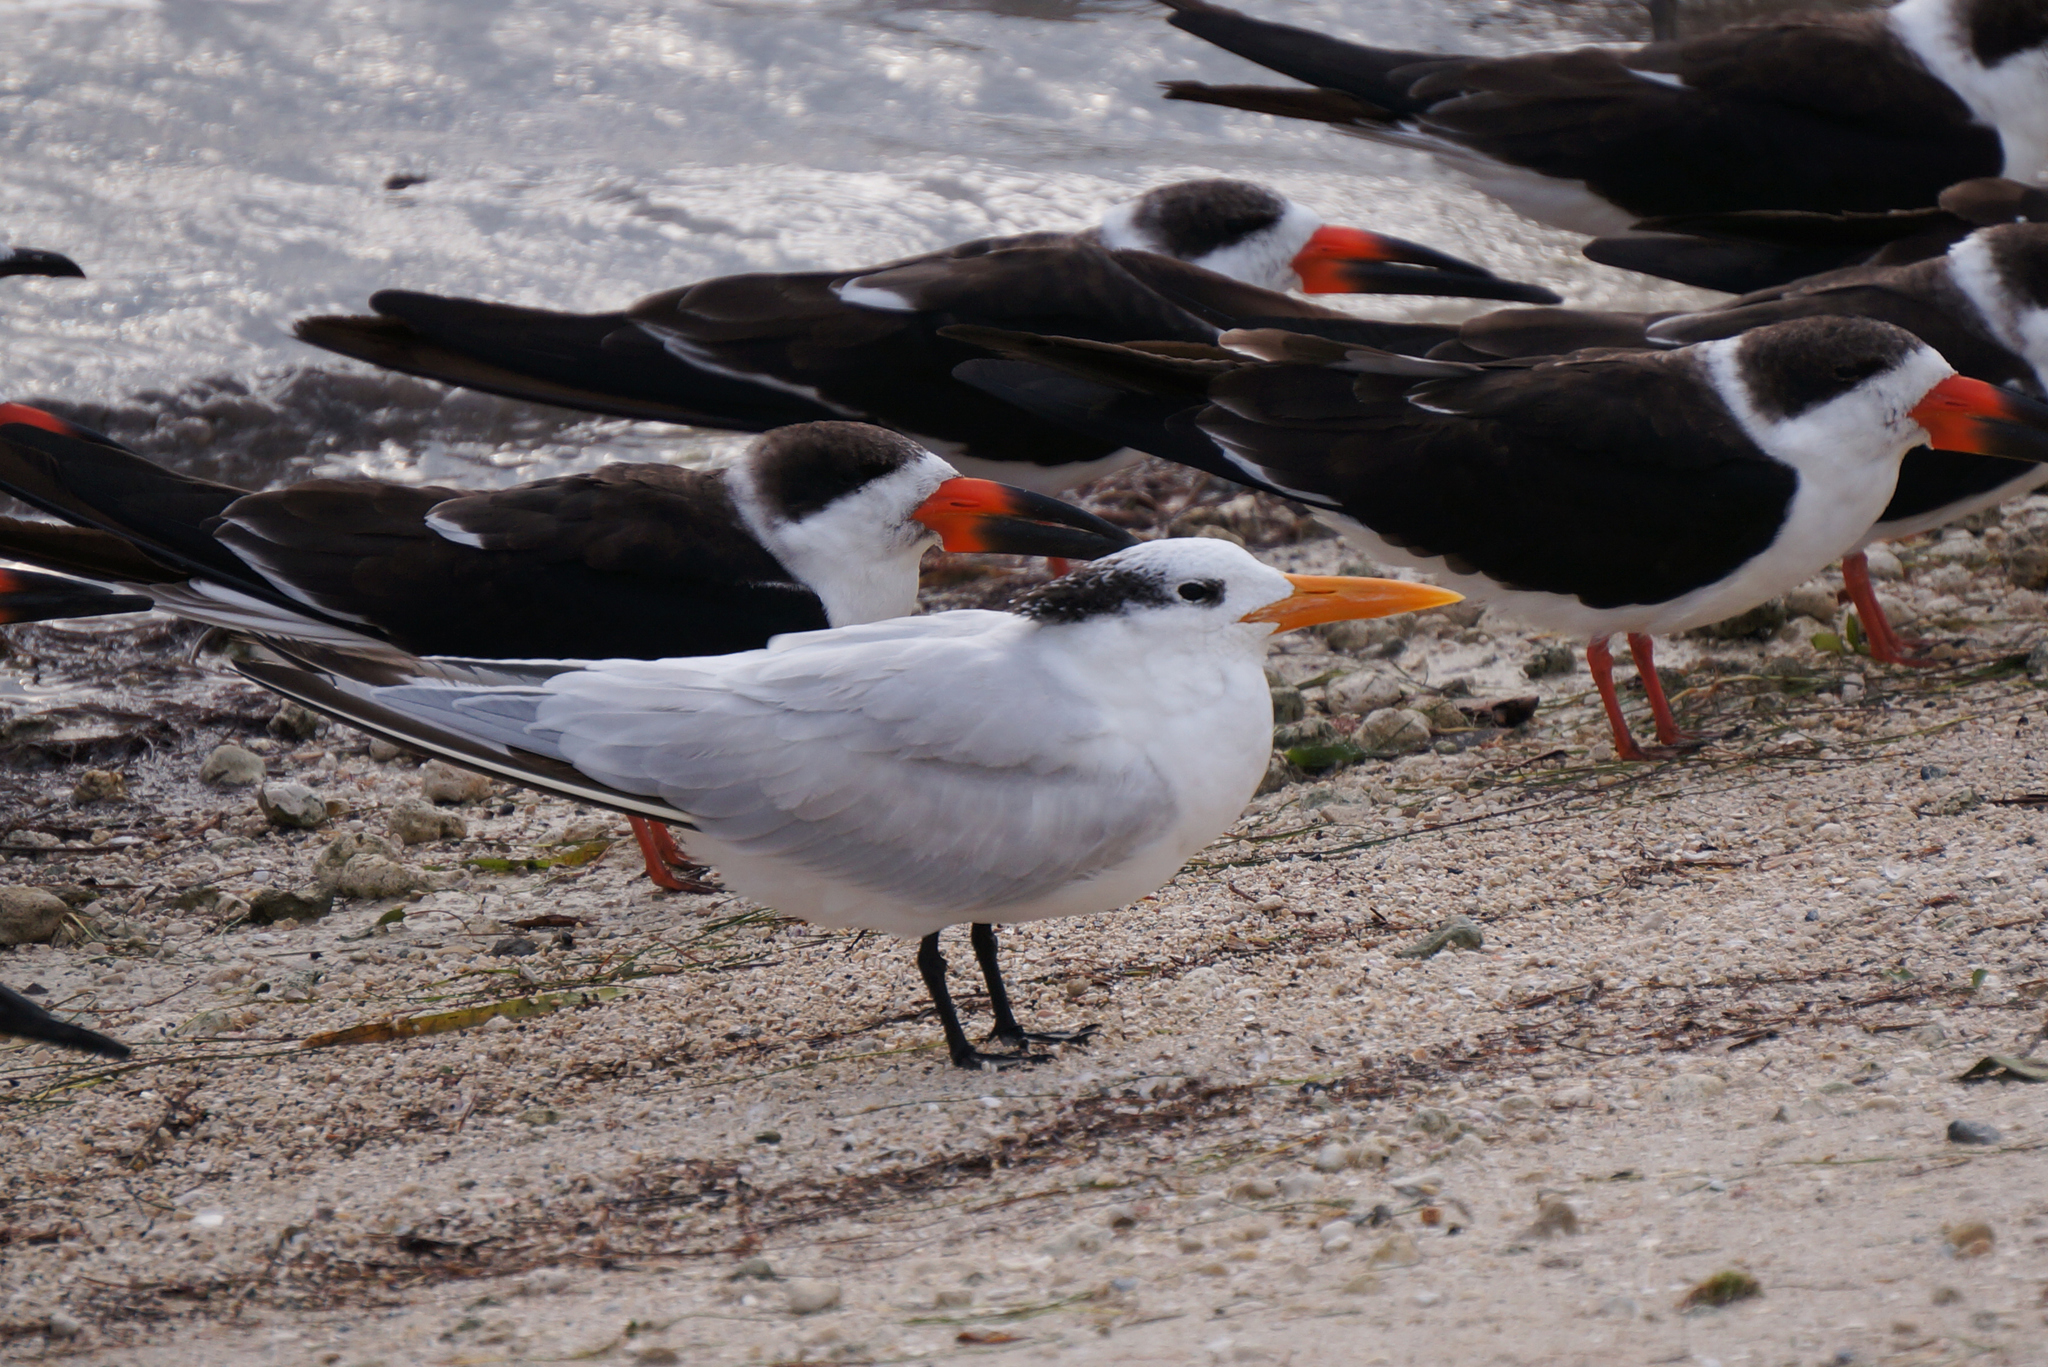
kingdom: Animalia
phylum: Chordata
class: Aves
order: Charadriiformes
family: Laridae
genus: Thalasseus
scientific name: Thalasseus maximus
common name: Royal tern
